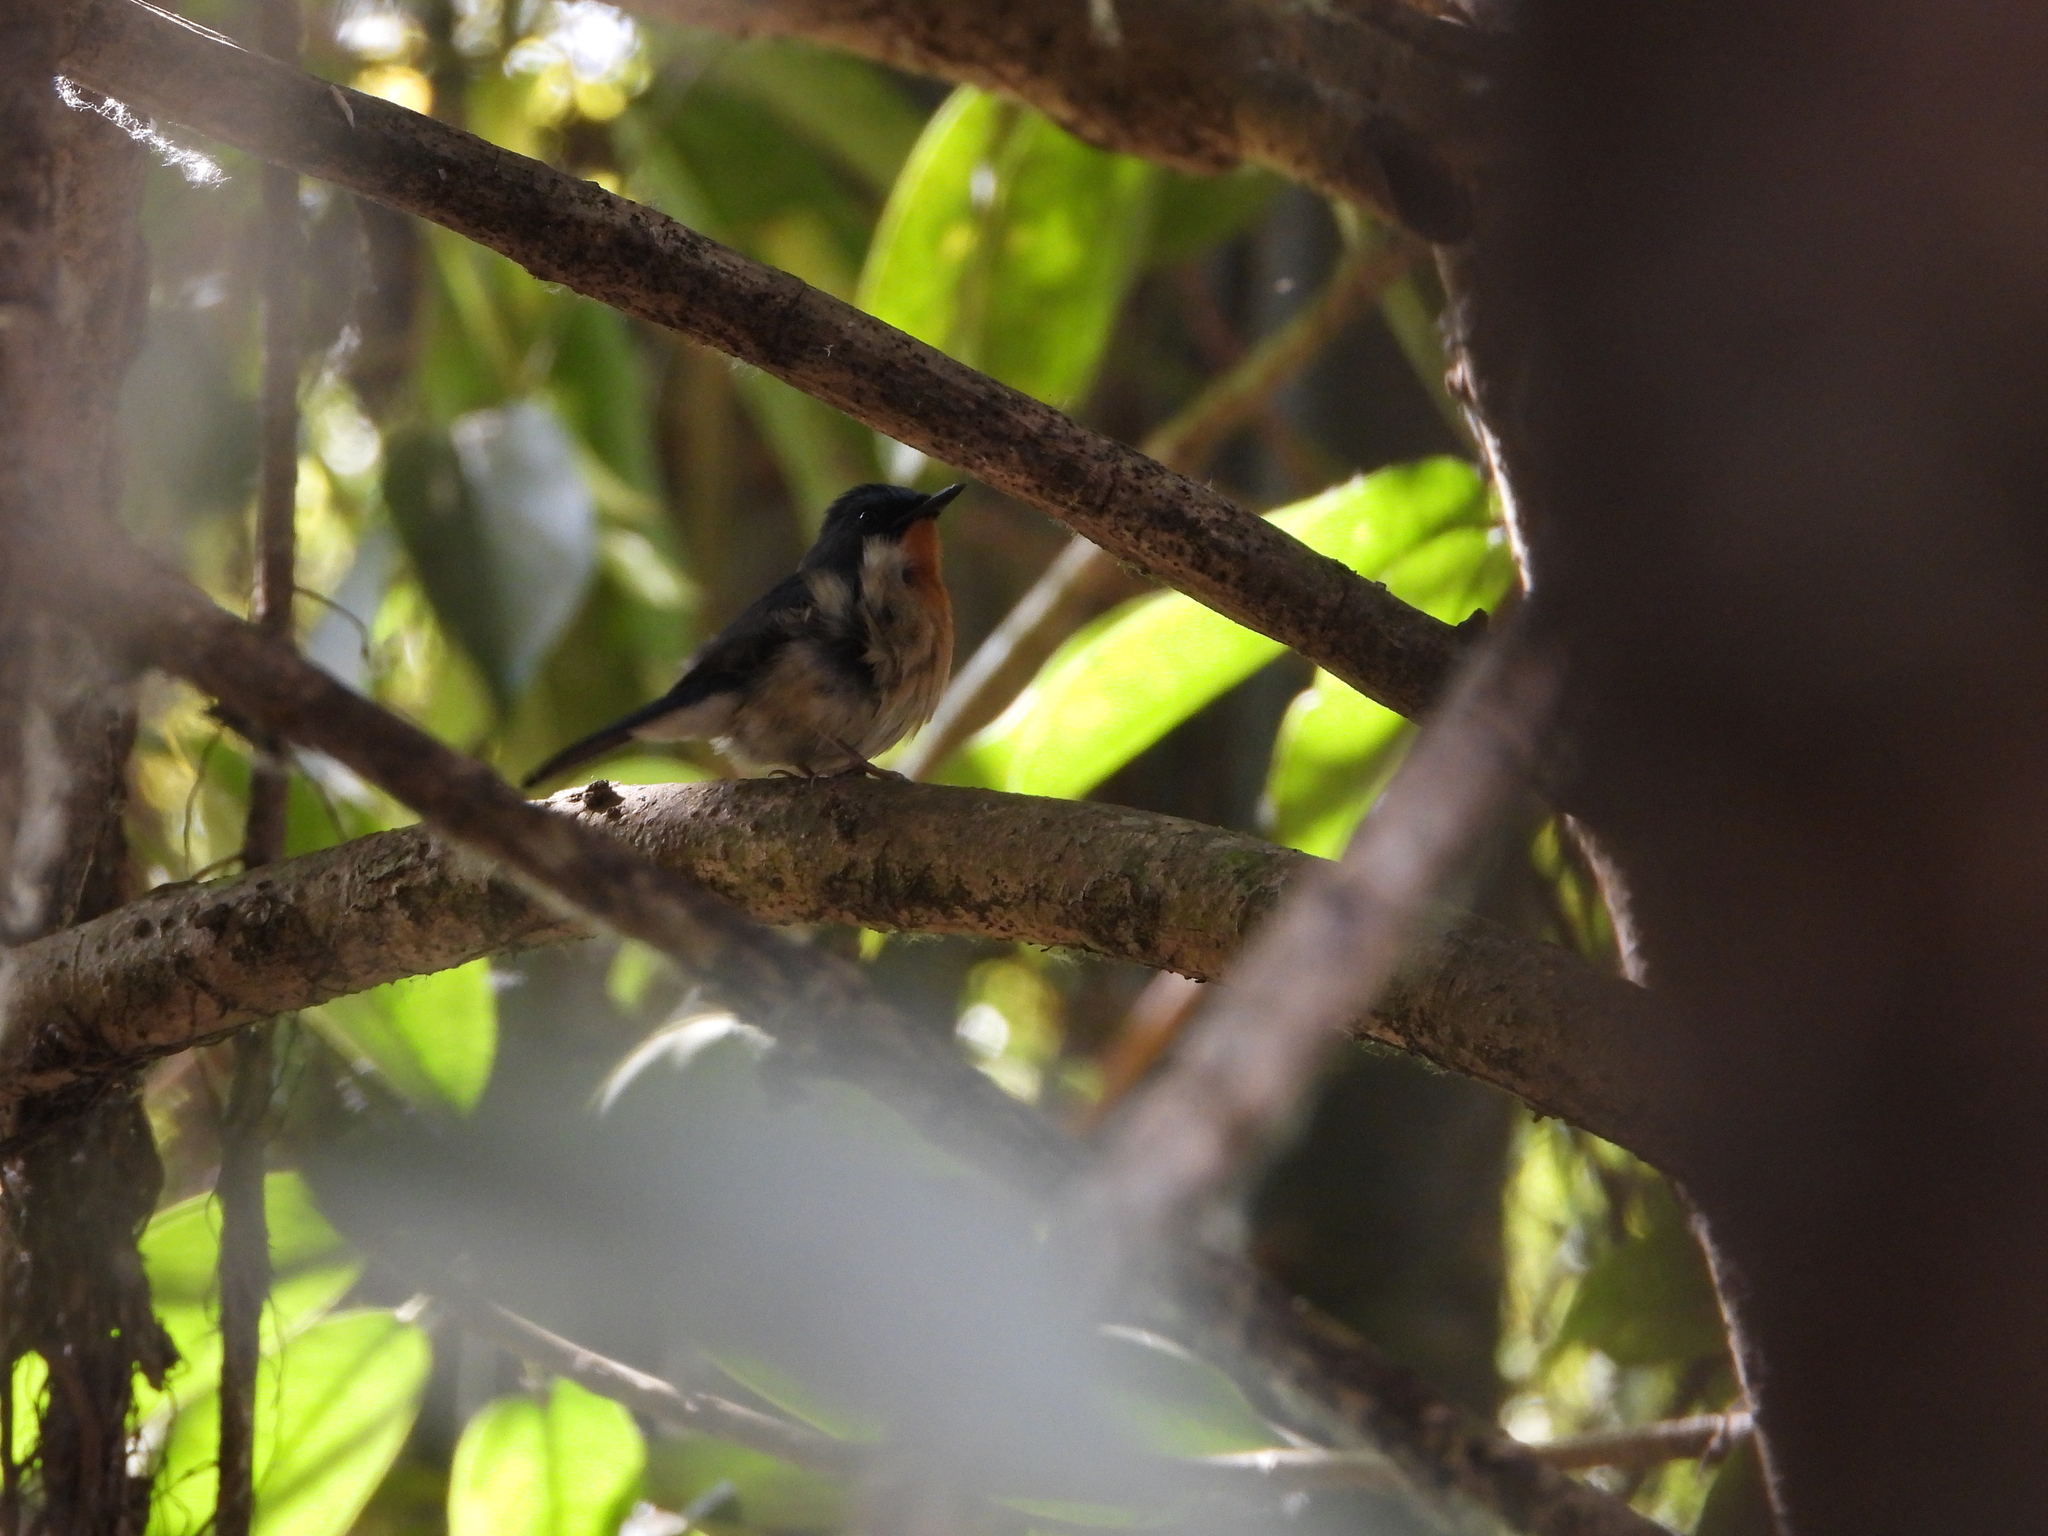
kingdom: Animalia
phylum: Chordata
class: Aves
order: Passeriformes
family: Muscicapidae
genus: Cyornis
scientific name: Cyornis whitei
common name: Hill blue flycatcher
